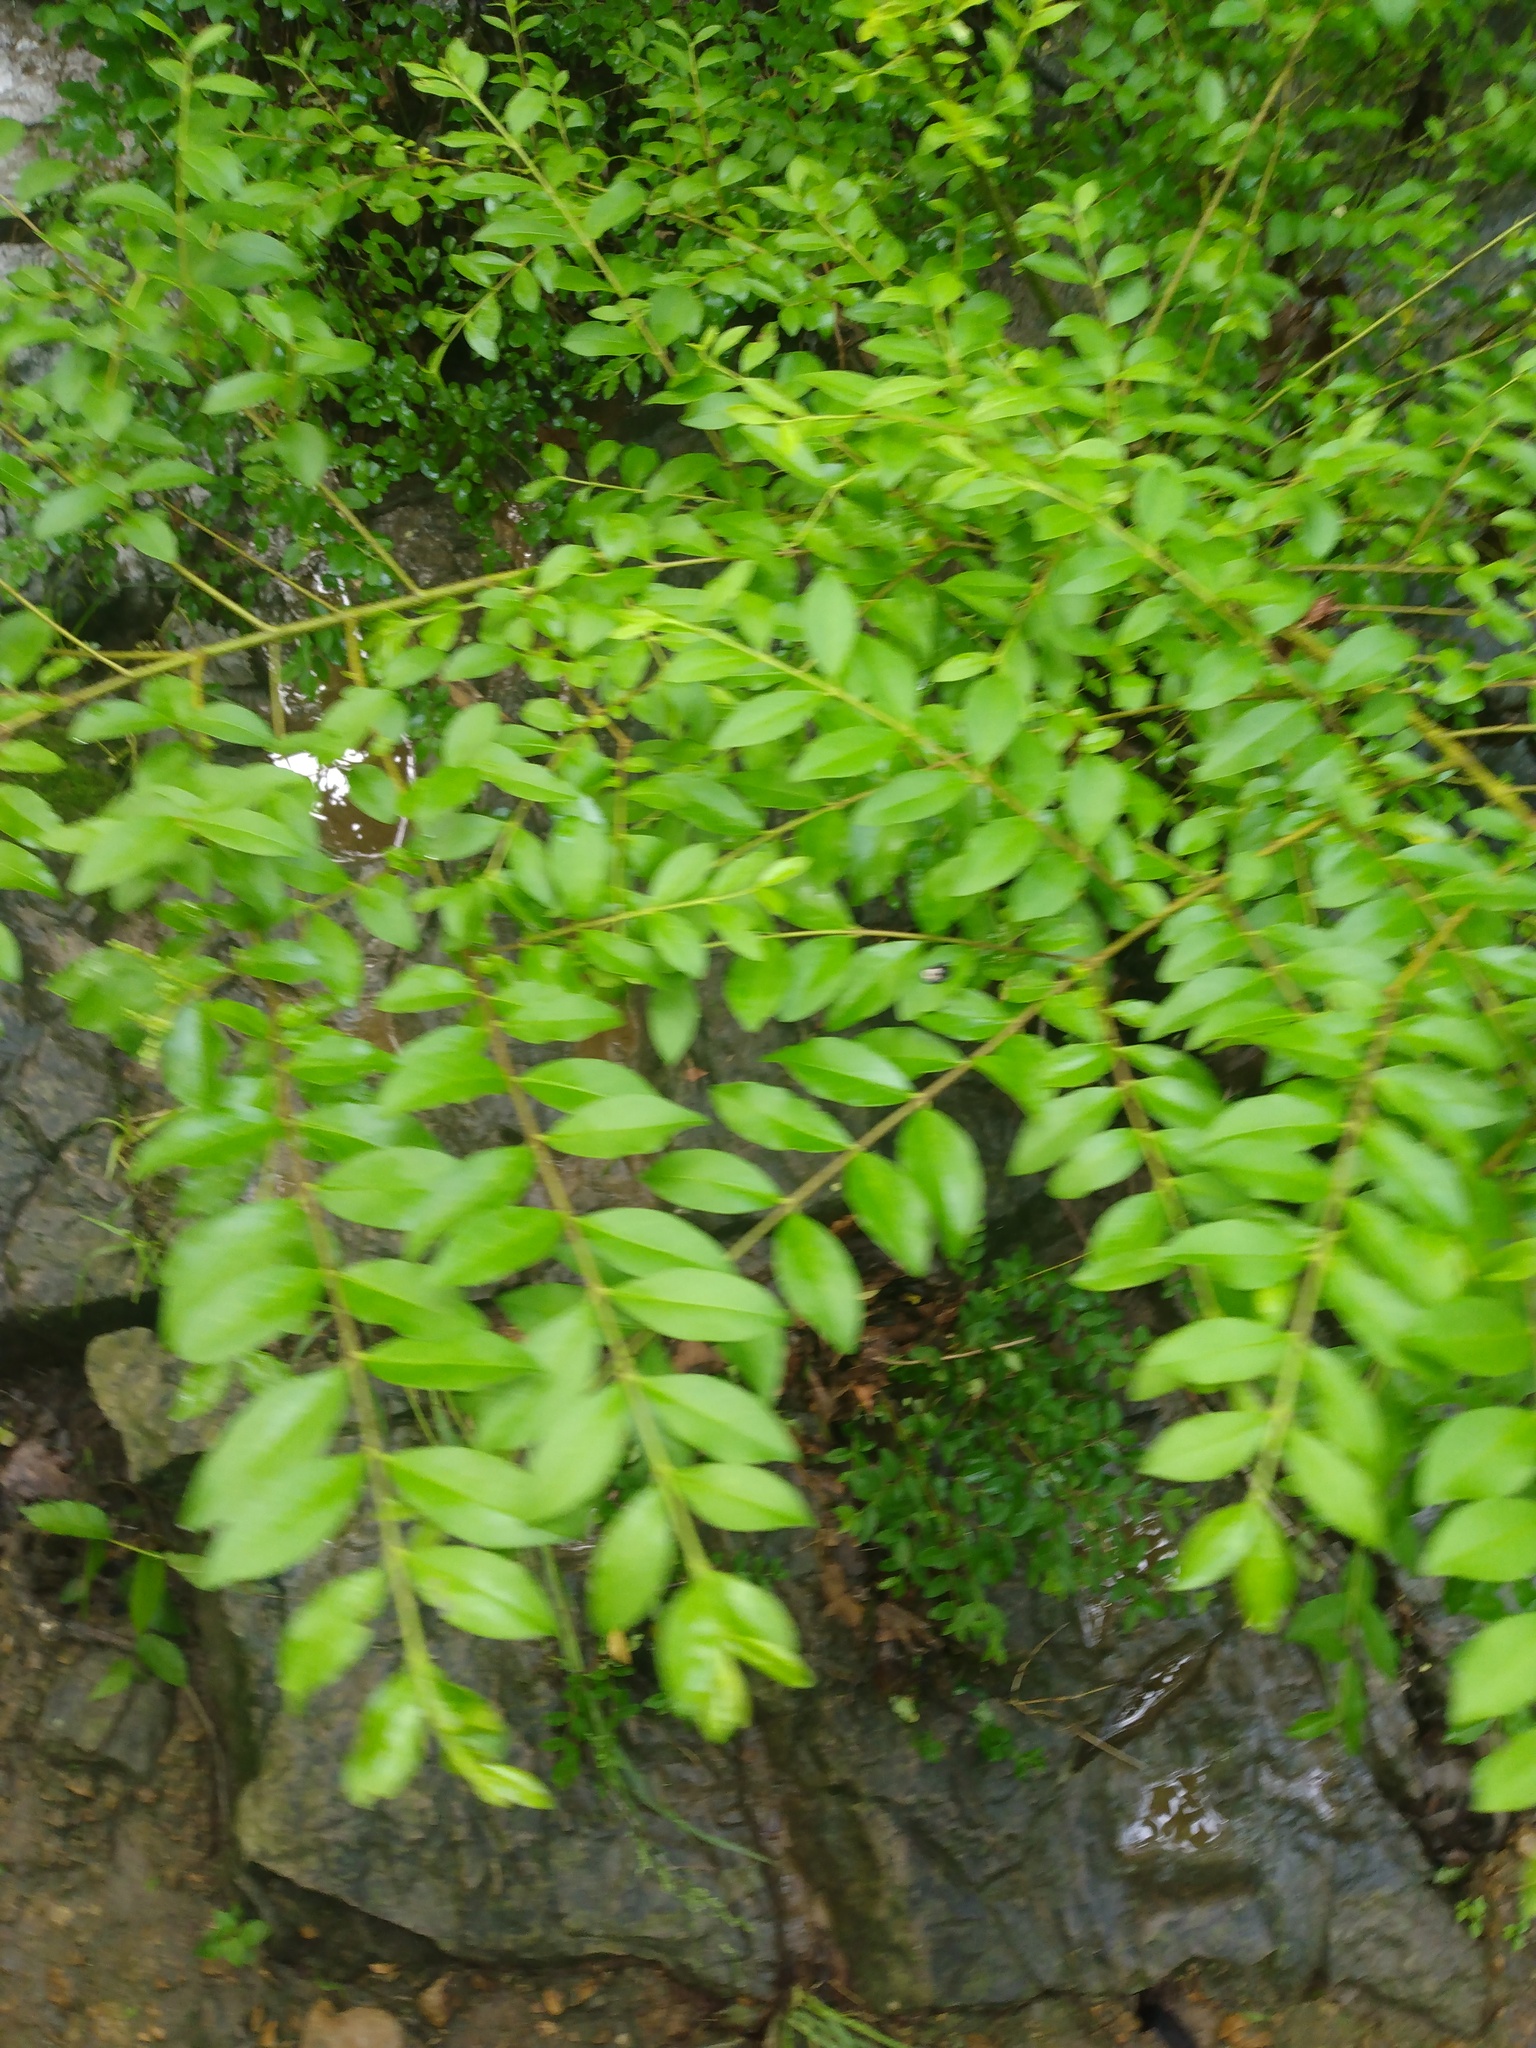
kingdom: Plantae
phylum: Tracheophyta
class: Magnoliopsida
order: Lamiales
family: Oleaceae
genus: Ligustrum
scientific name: Ligustrum sinense
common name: Chinese privet
